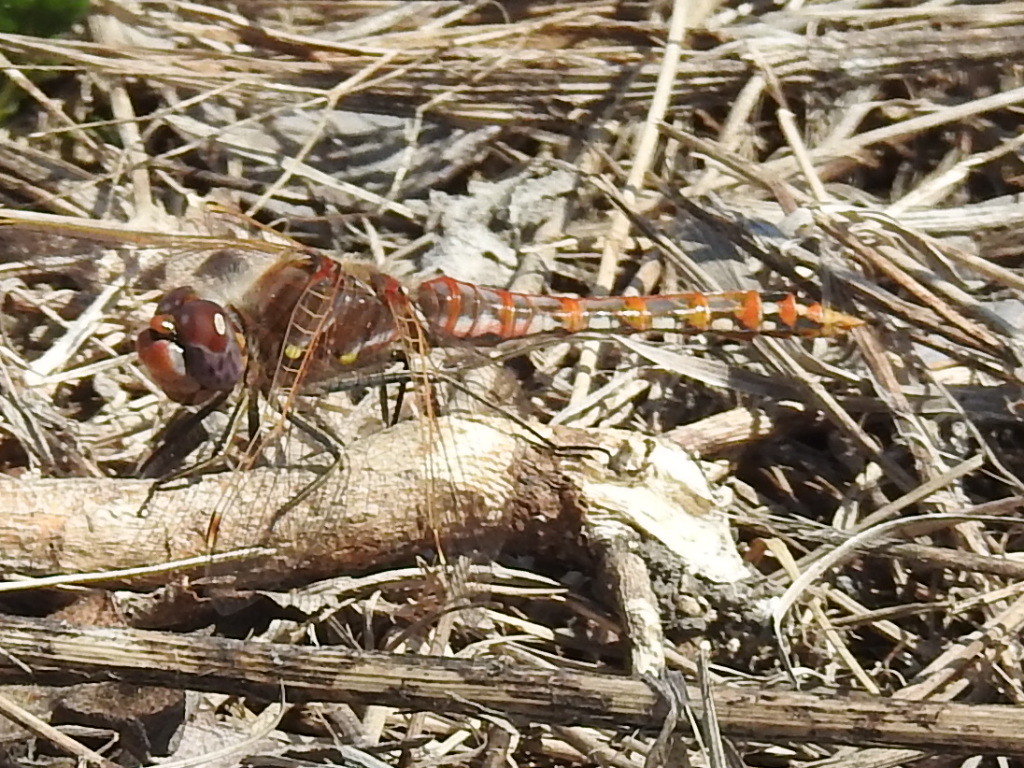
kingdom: Animalia
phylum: Arthropoda
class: Insecta
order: Odonata
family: Libellulidae
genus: Sympetrum
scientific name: Sympetrum corruptum
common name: Variegated meadowhawk
